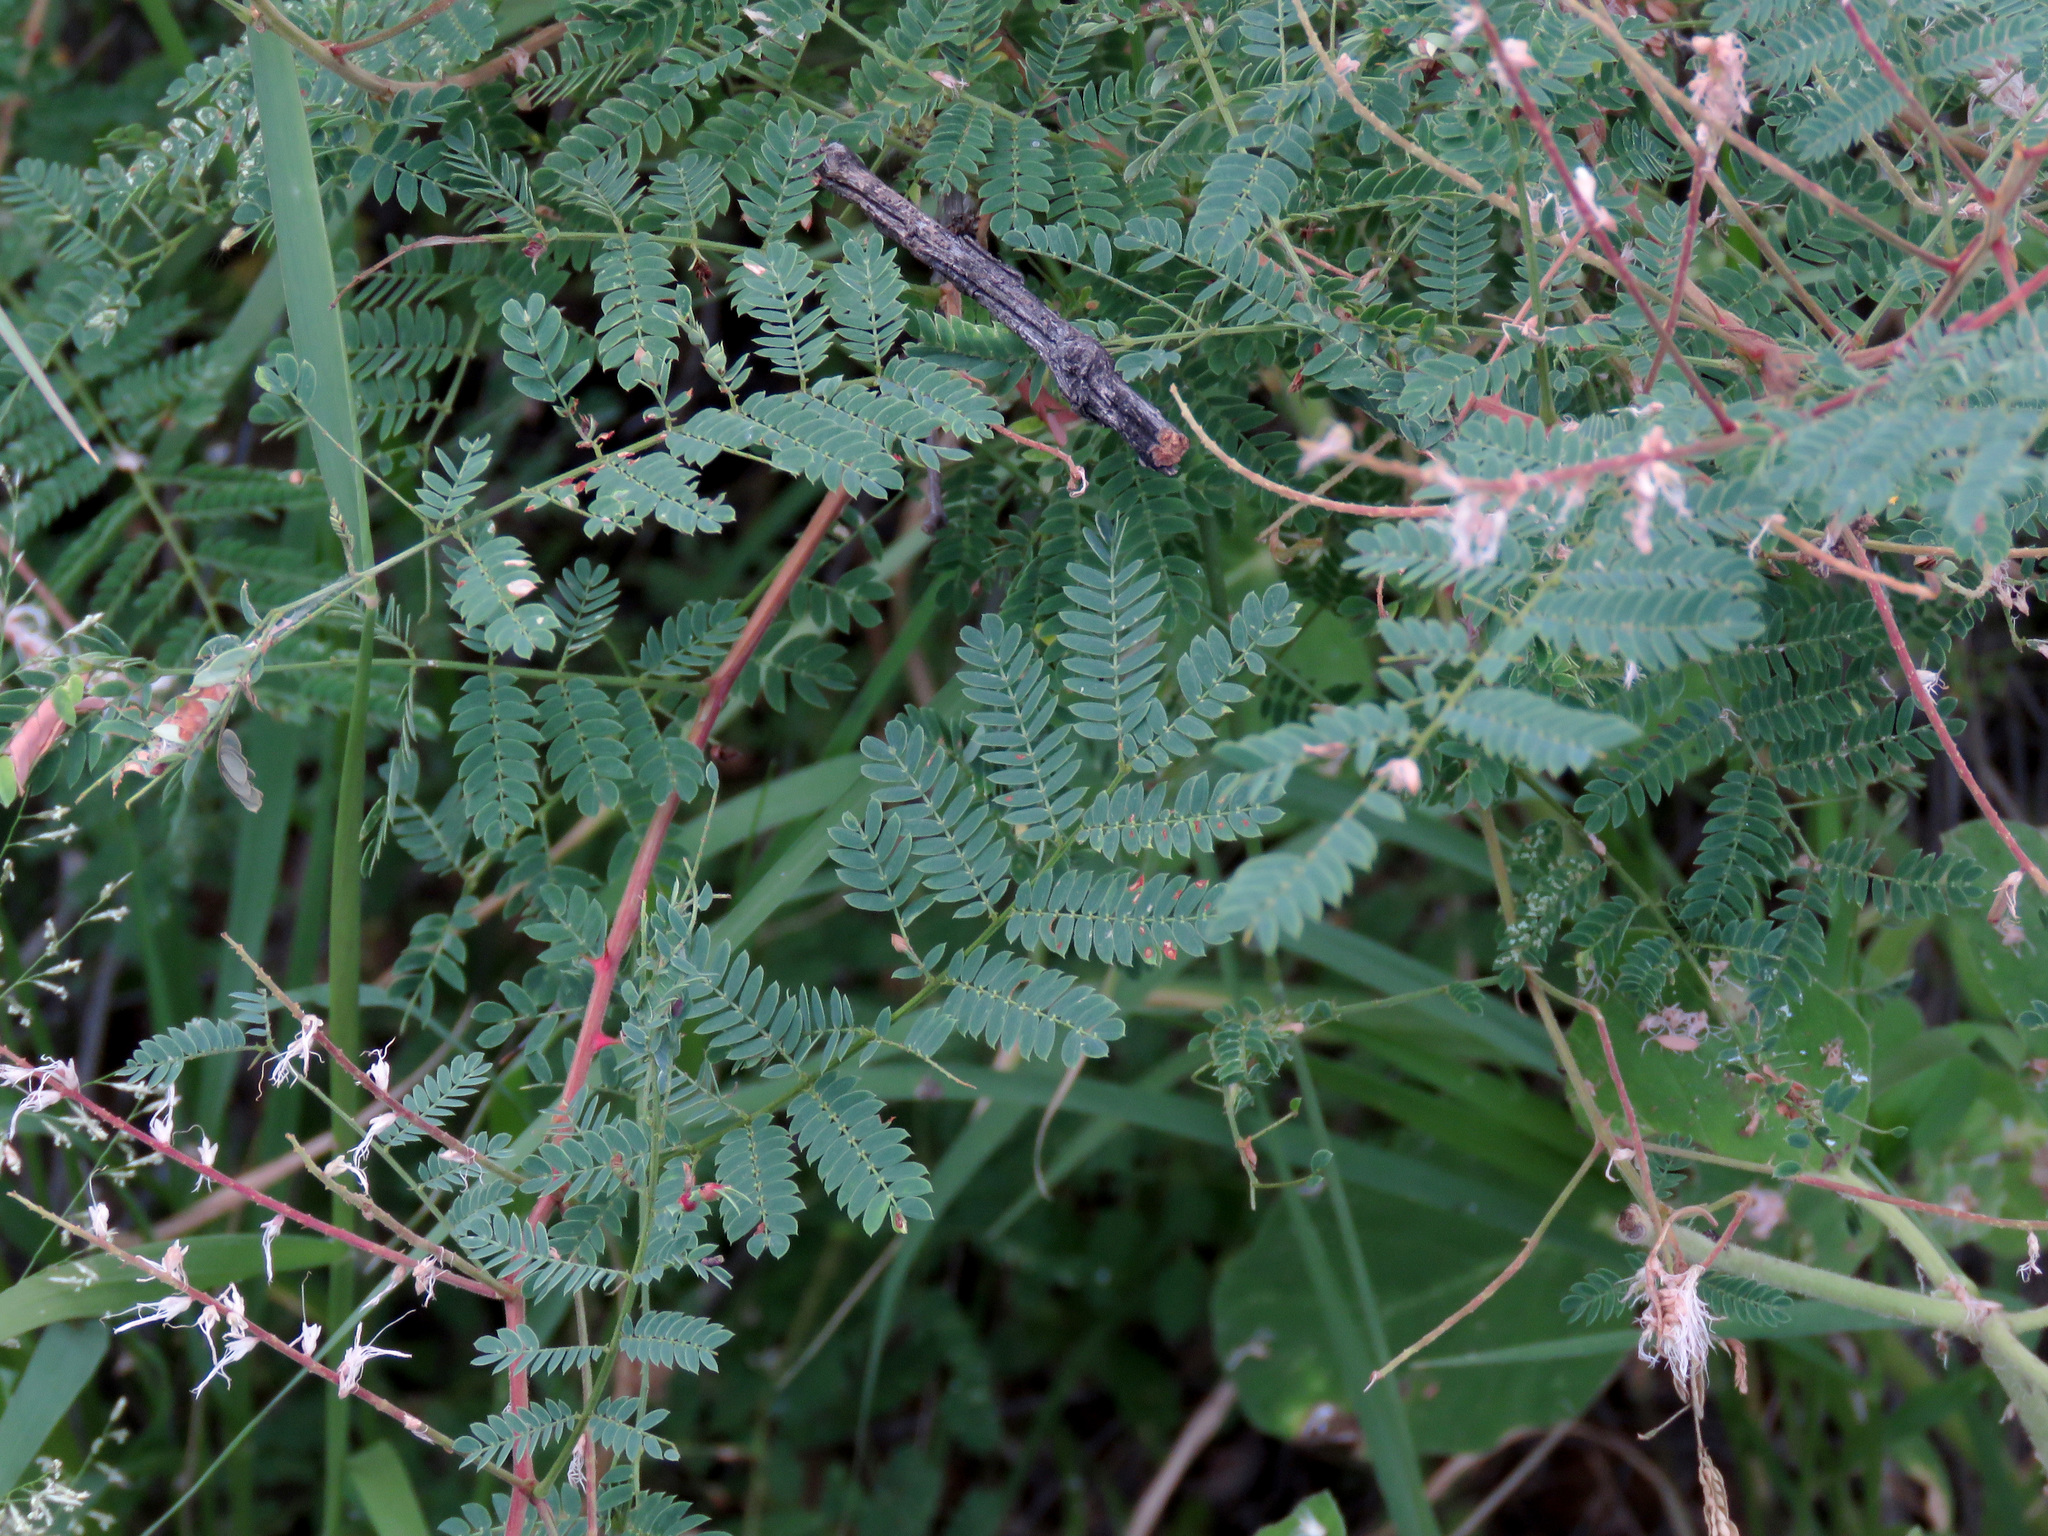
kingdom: Plantae
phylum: Tracheophyta
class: Magnoliopsida
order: Fabales
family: Fabaceae
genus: Mimosa
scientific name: Mimosa dysocarpa
